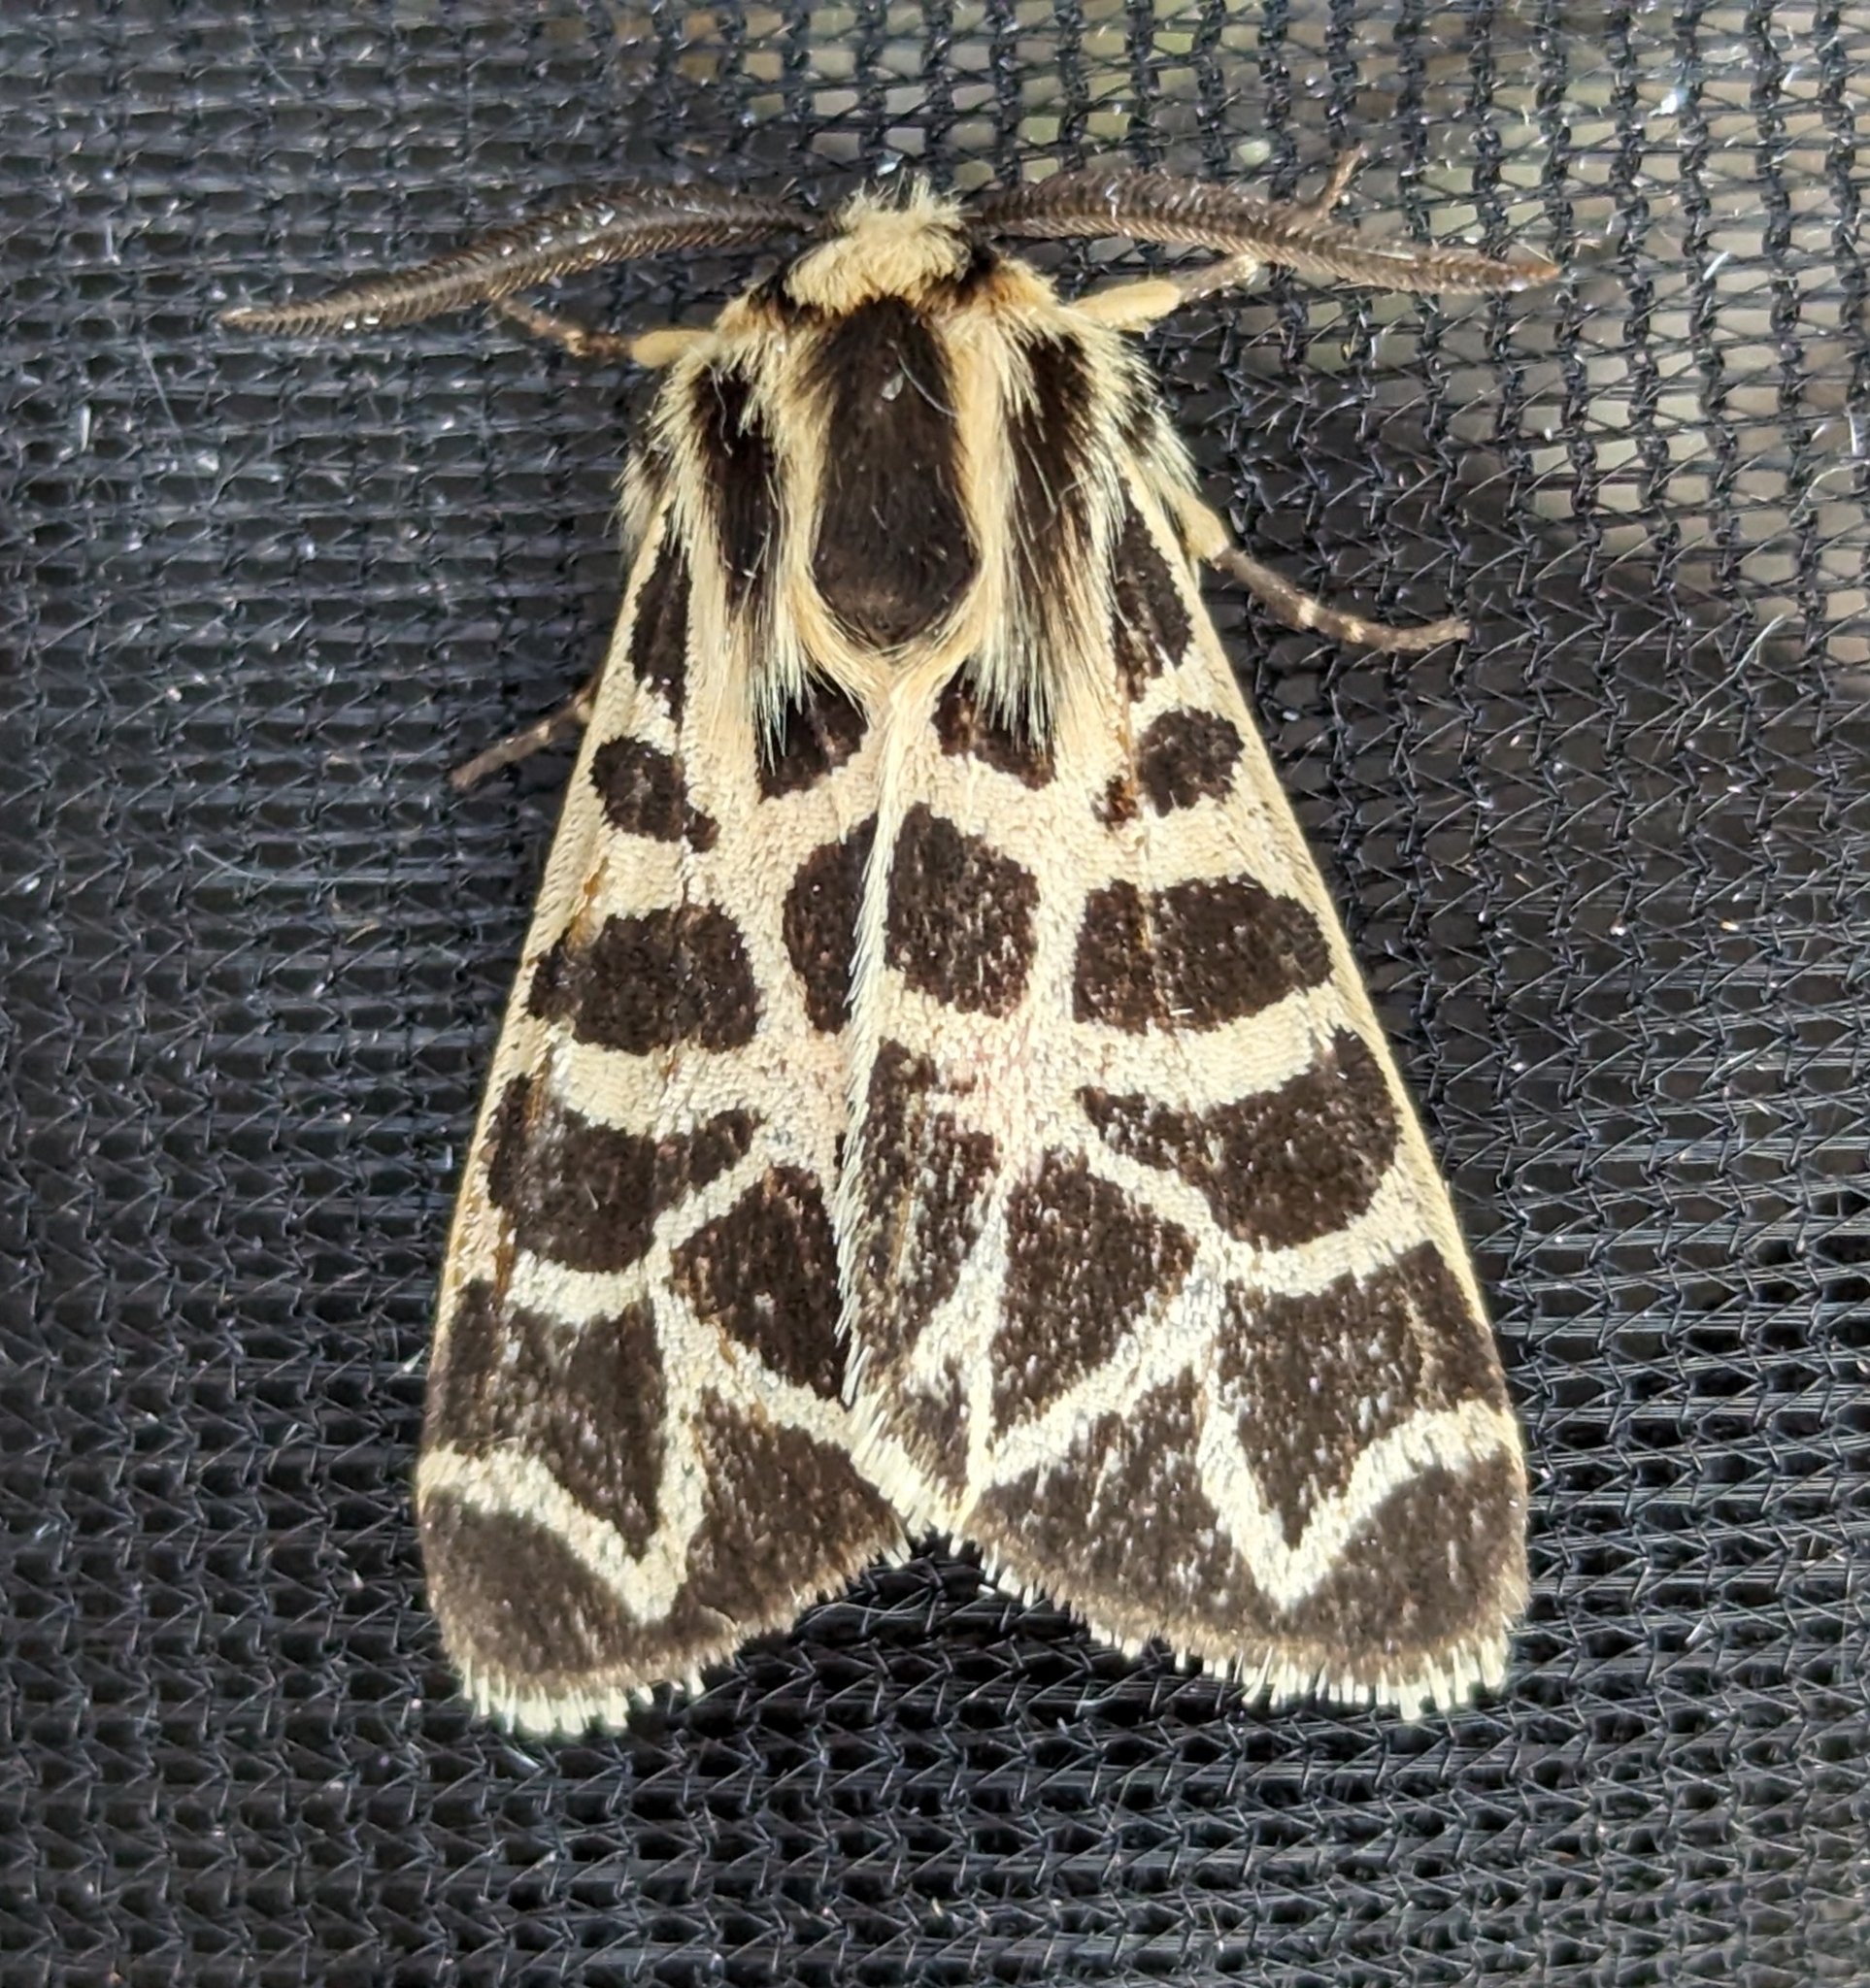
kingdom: Animalia
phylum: Arthropoda
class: Insecta
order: Lepidoptera
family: Erebidae
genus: Apantesis
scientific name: Apantesis
